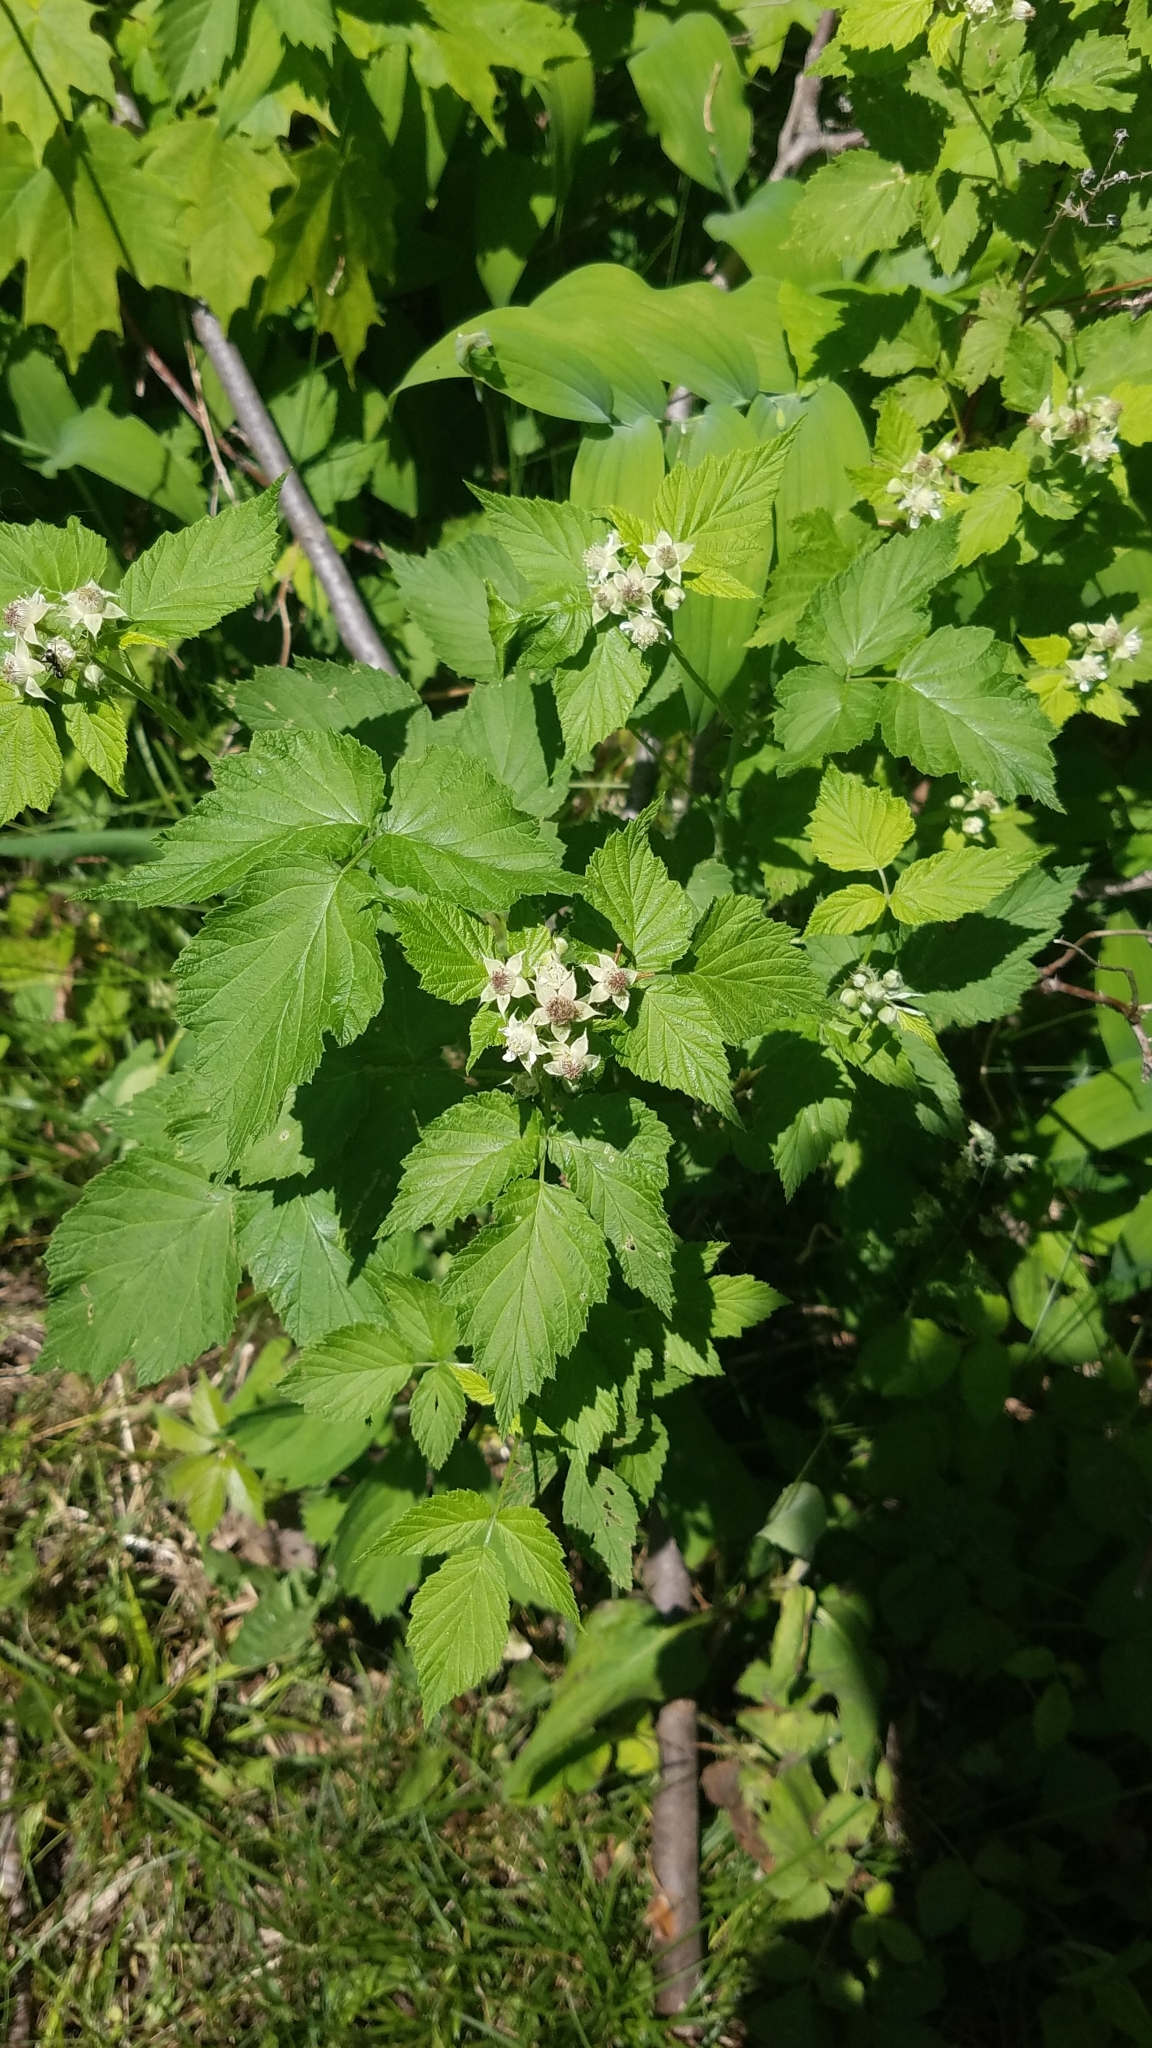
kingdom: Plantae
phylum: Tracheophyta
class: Magnoliopsida
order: Rosales
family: Rosaceae
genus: Rubus
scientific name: Rubus occidentalis
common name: Black raspberry
